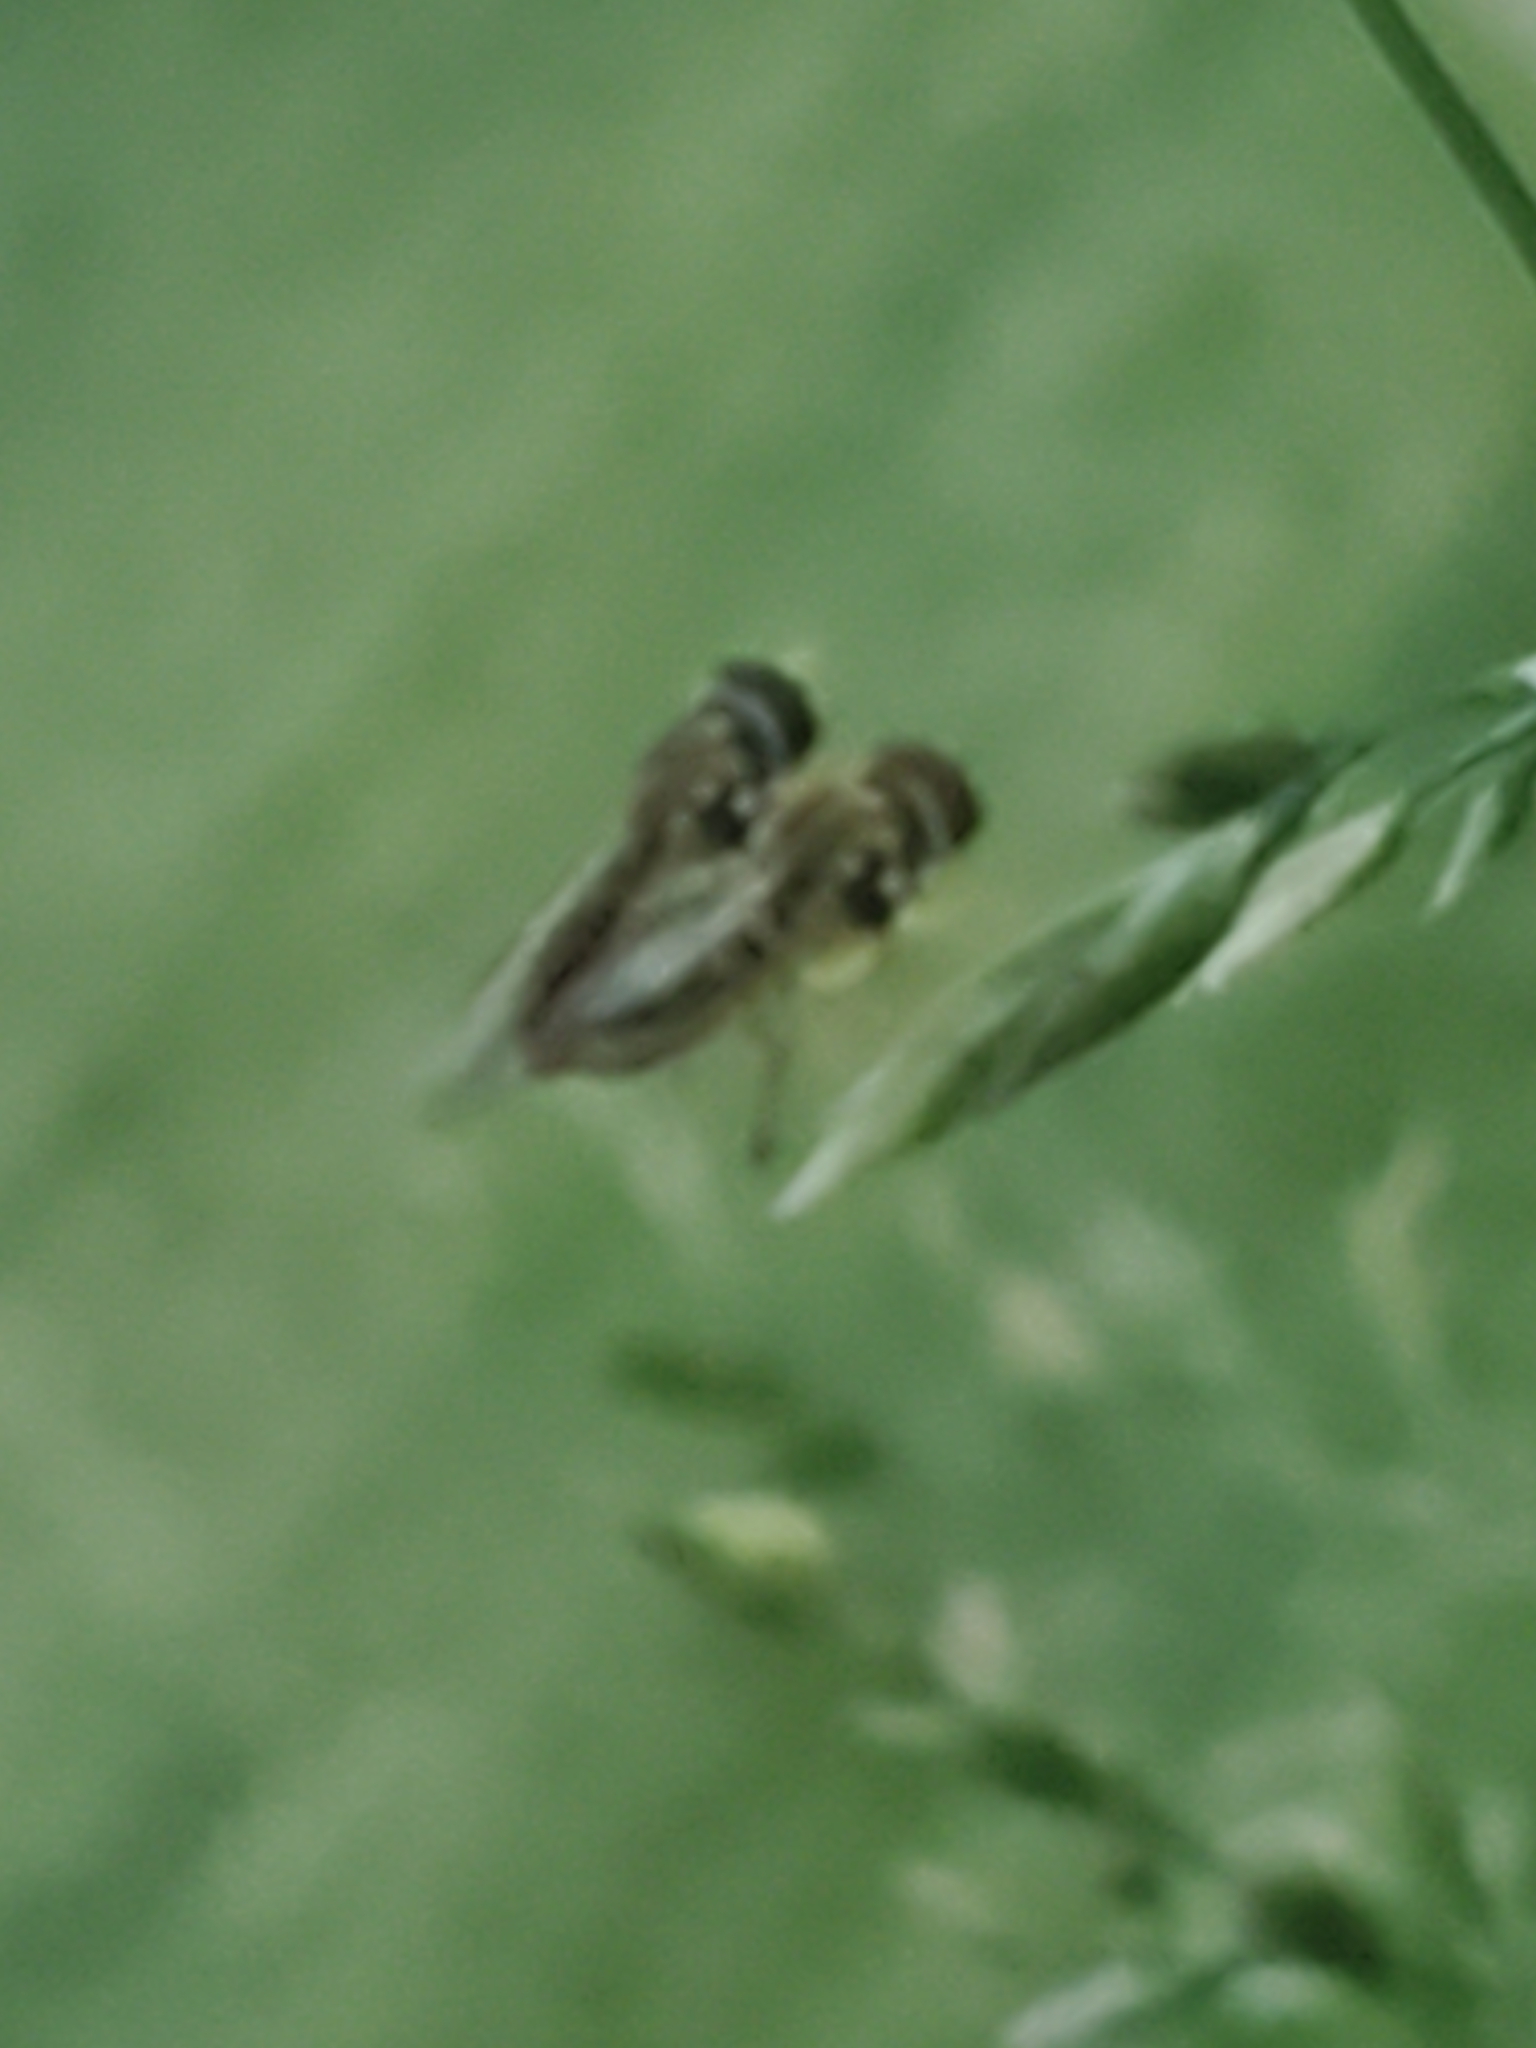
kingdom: Animalia
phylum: Arthropoda
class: Insecta
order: Diptera
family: Syrphidae
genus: Toxomerus
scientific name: Toxomerus marginatus
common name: Syrphid fly
